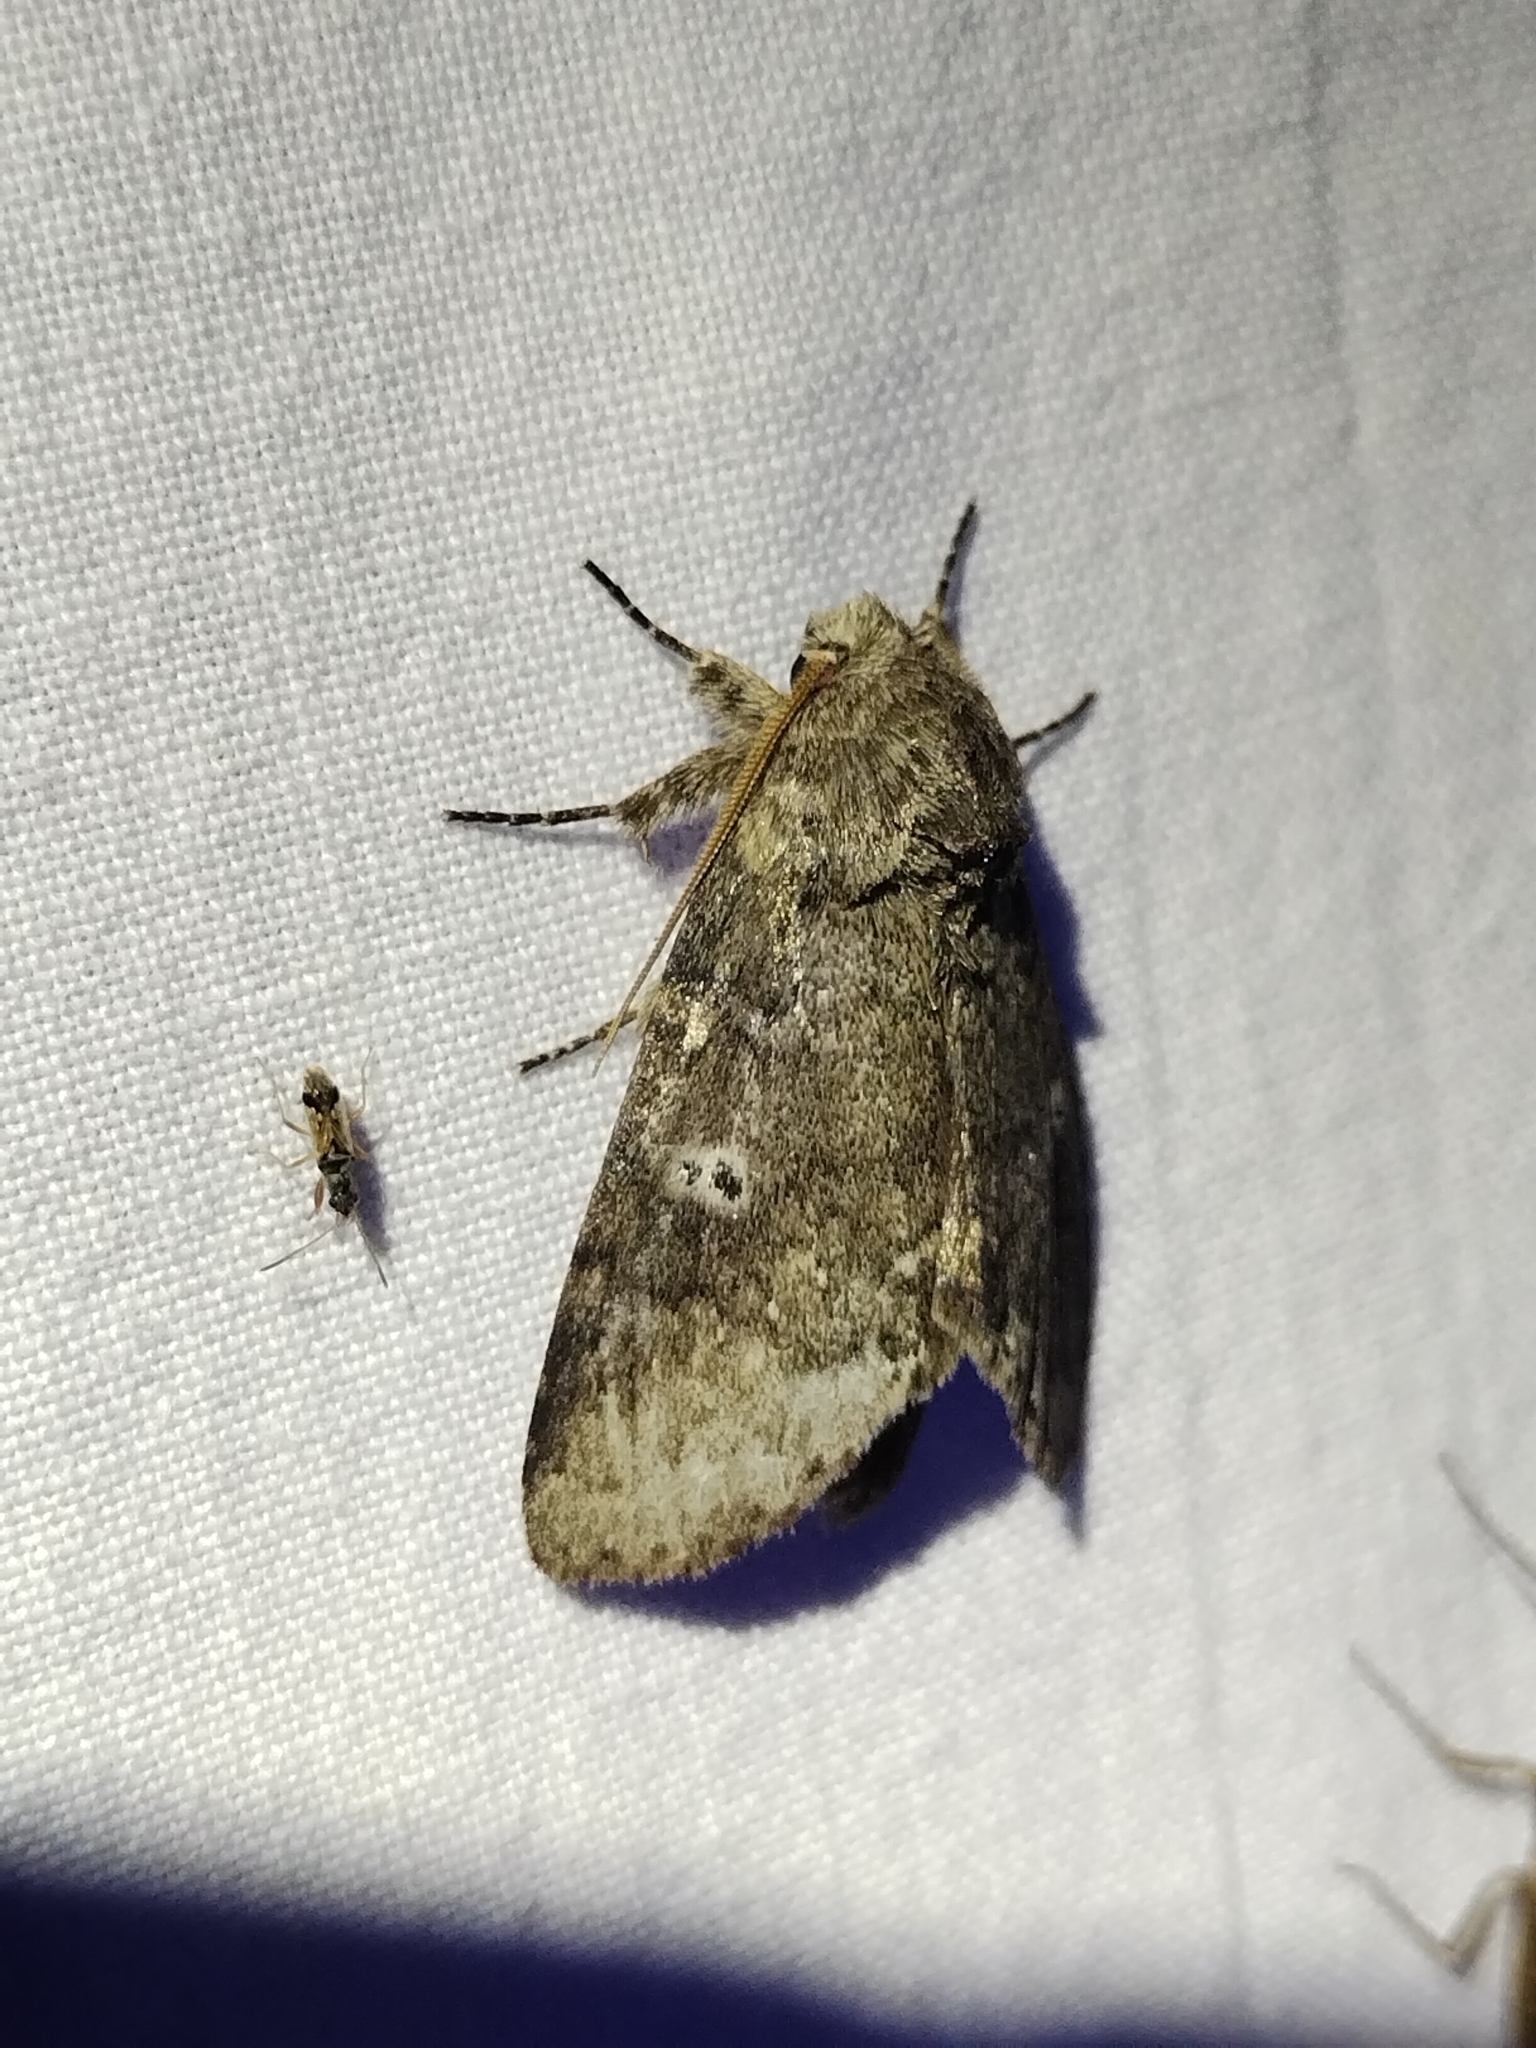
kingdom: Animalia
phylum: Arthropoda
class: Insecta
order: Lepidoptera
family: Notodontidae
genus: Lochmaeus
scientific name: Lochmaeus manteo
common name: Variable oakleaf caterpillar moth
